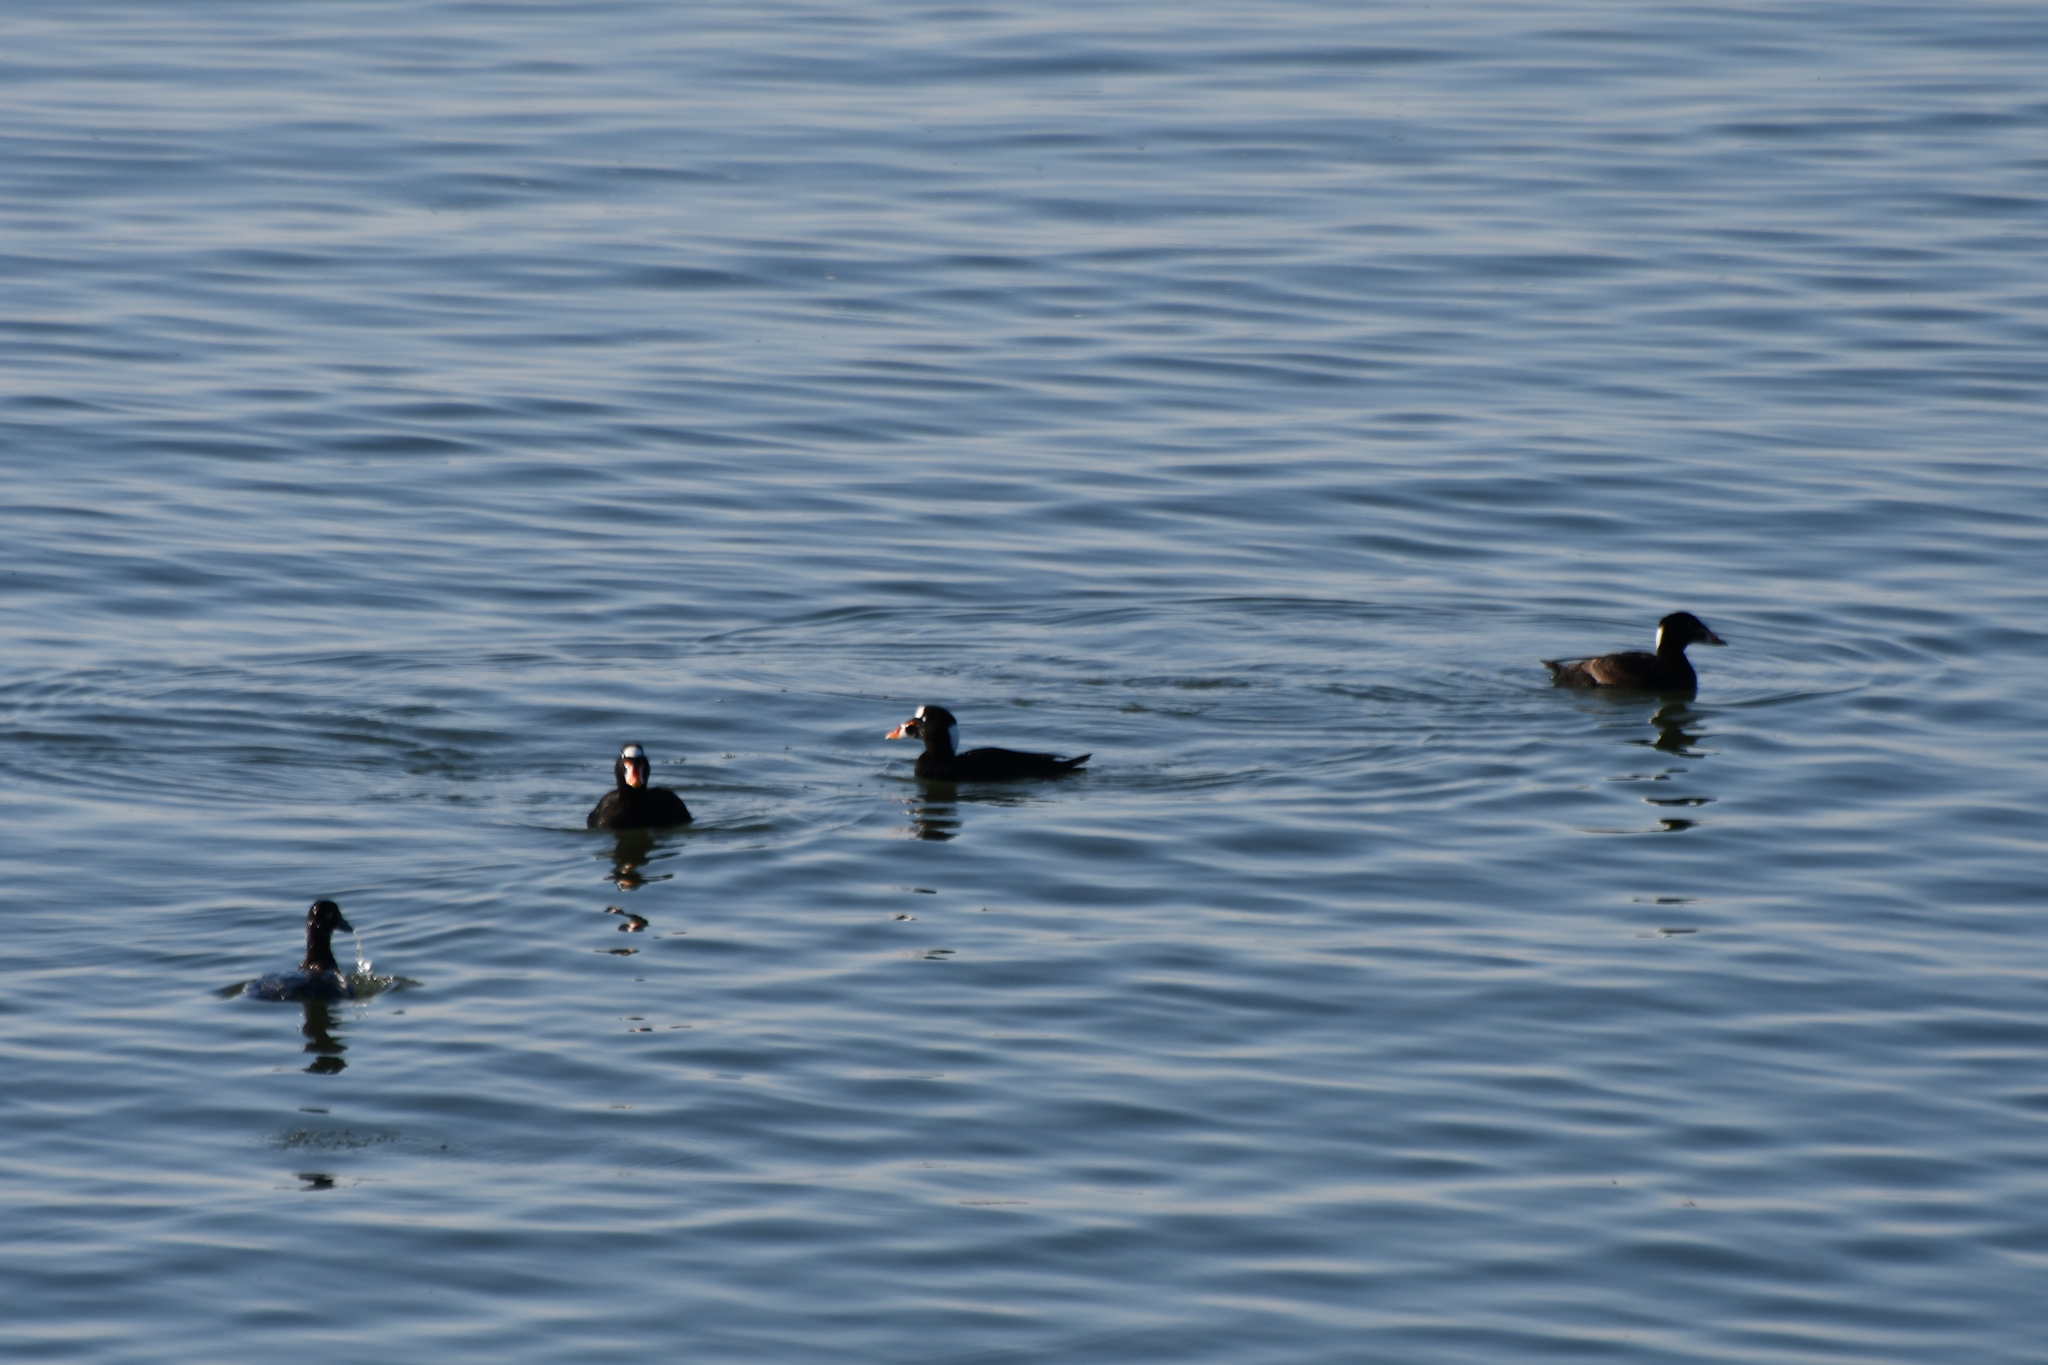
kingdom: Animalia
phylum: Chordata
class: Aves
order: Anseriformes
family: Anatidae
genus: Melanitta
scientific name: Melanitta perspicillata
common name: Surf scoter
